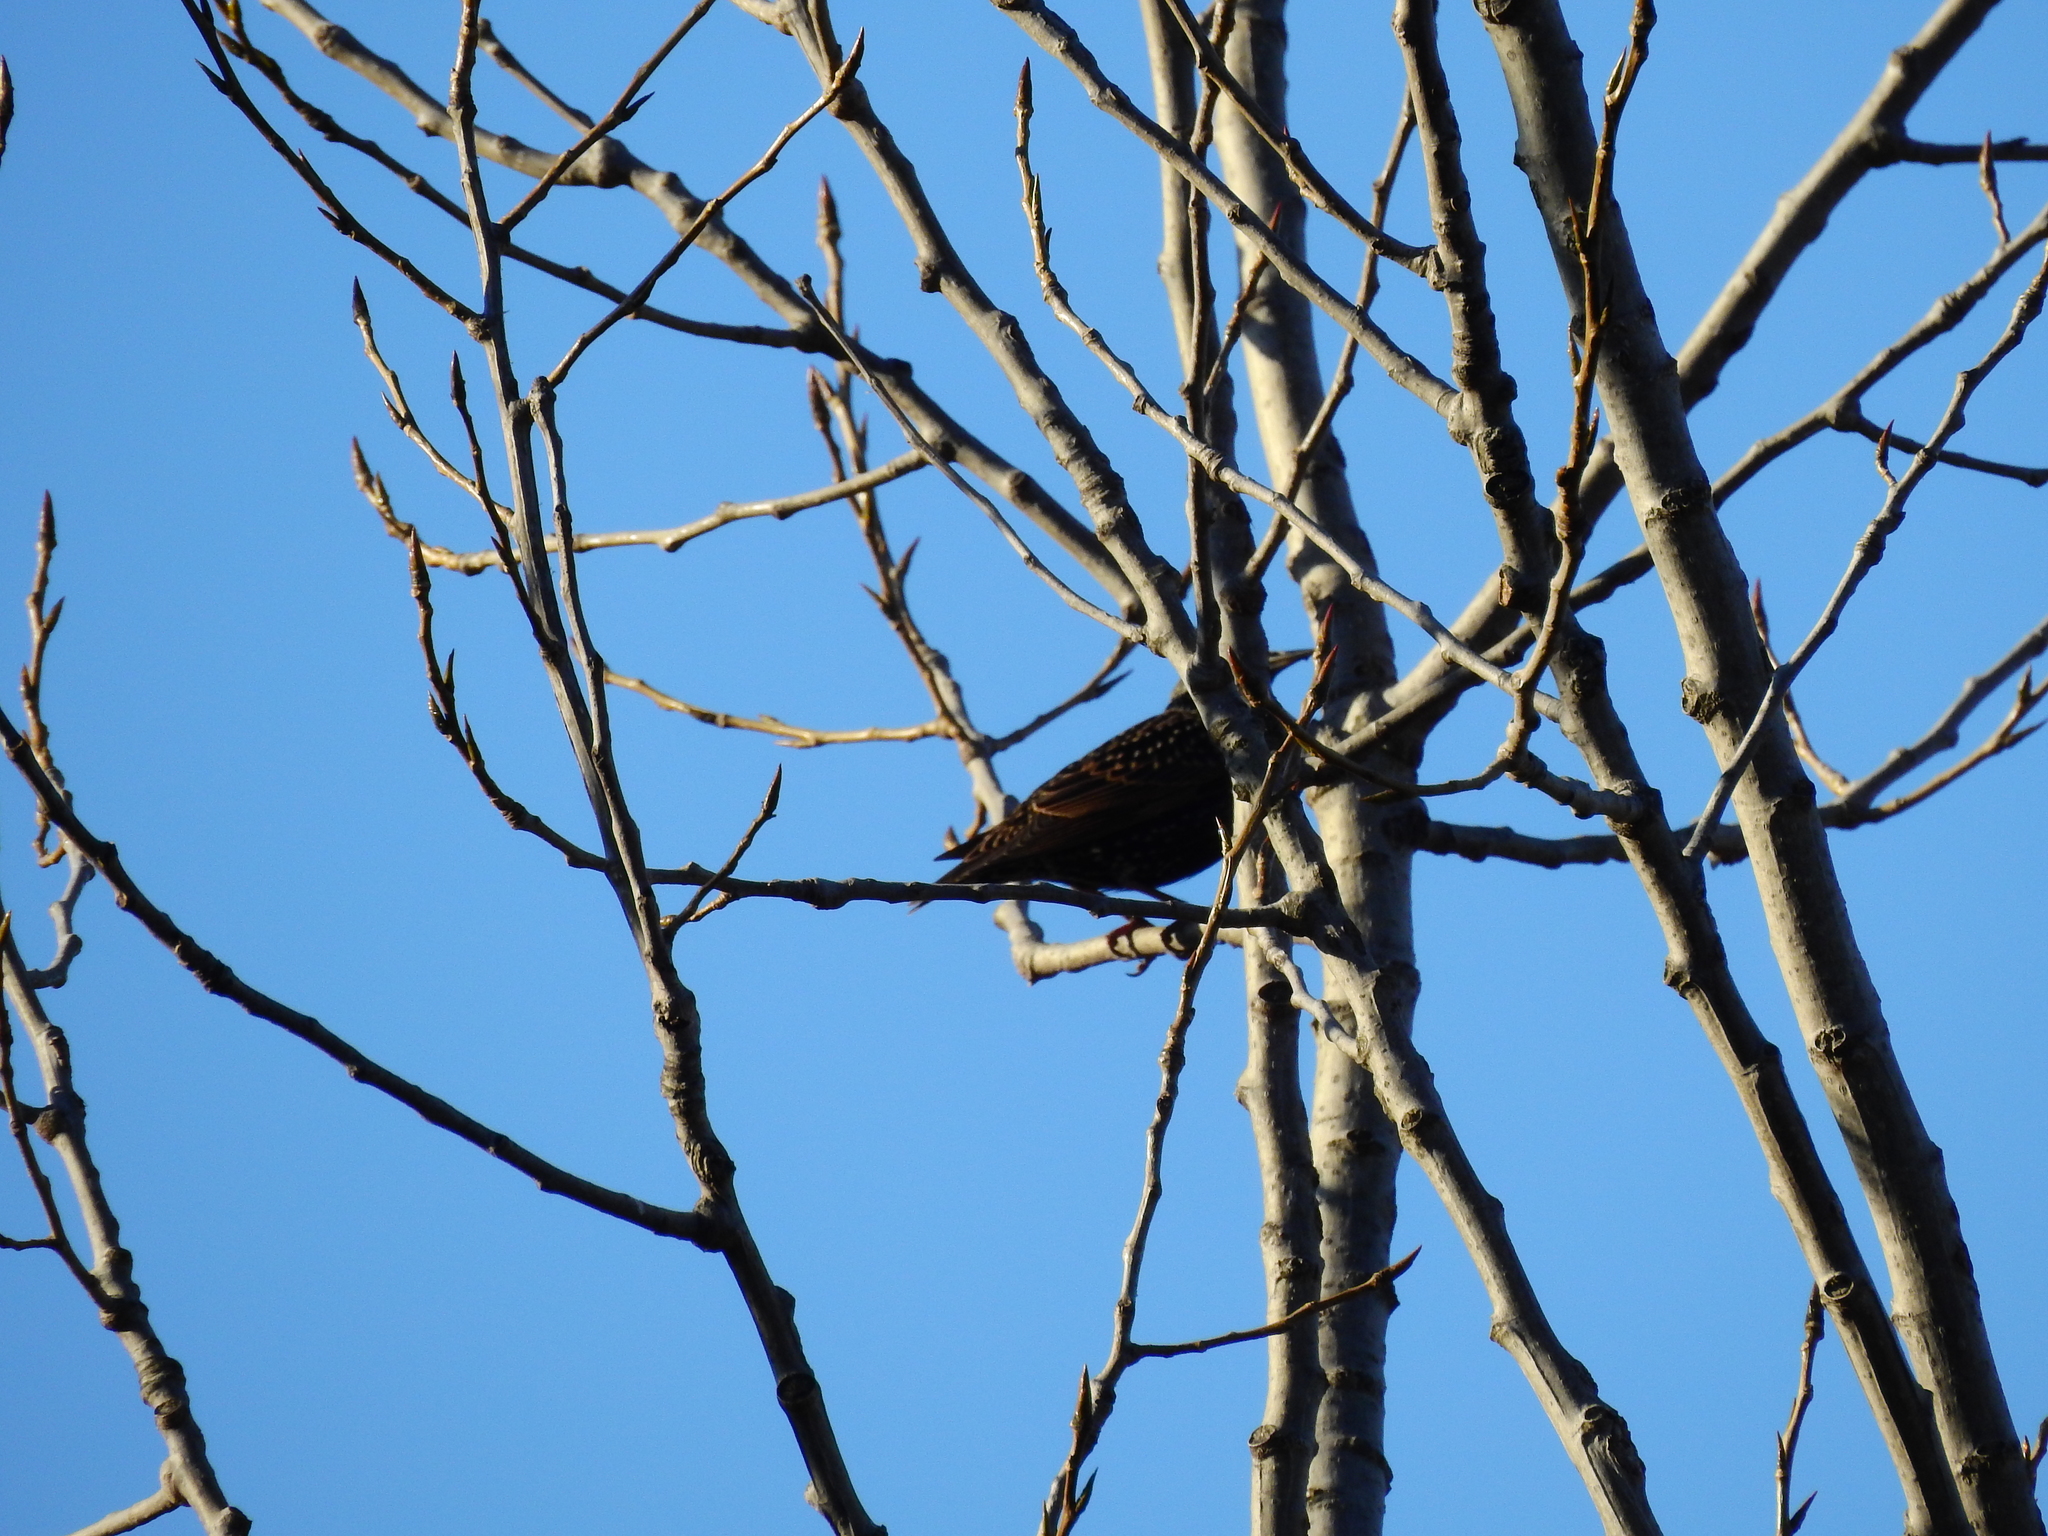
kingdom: Animalia
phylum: Chordata
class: Aves
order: Passeriformes
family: Sturnidae
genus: Sturnus
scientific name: Sturnus vulgaris
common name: Common starling
